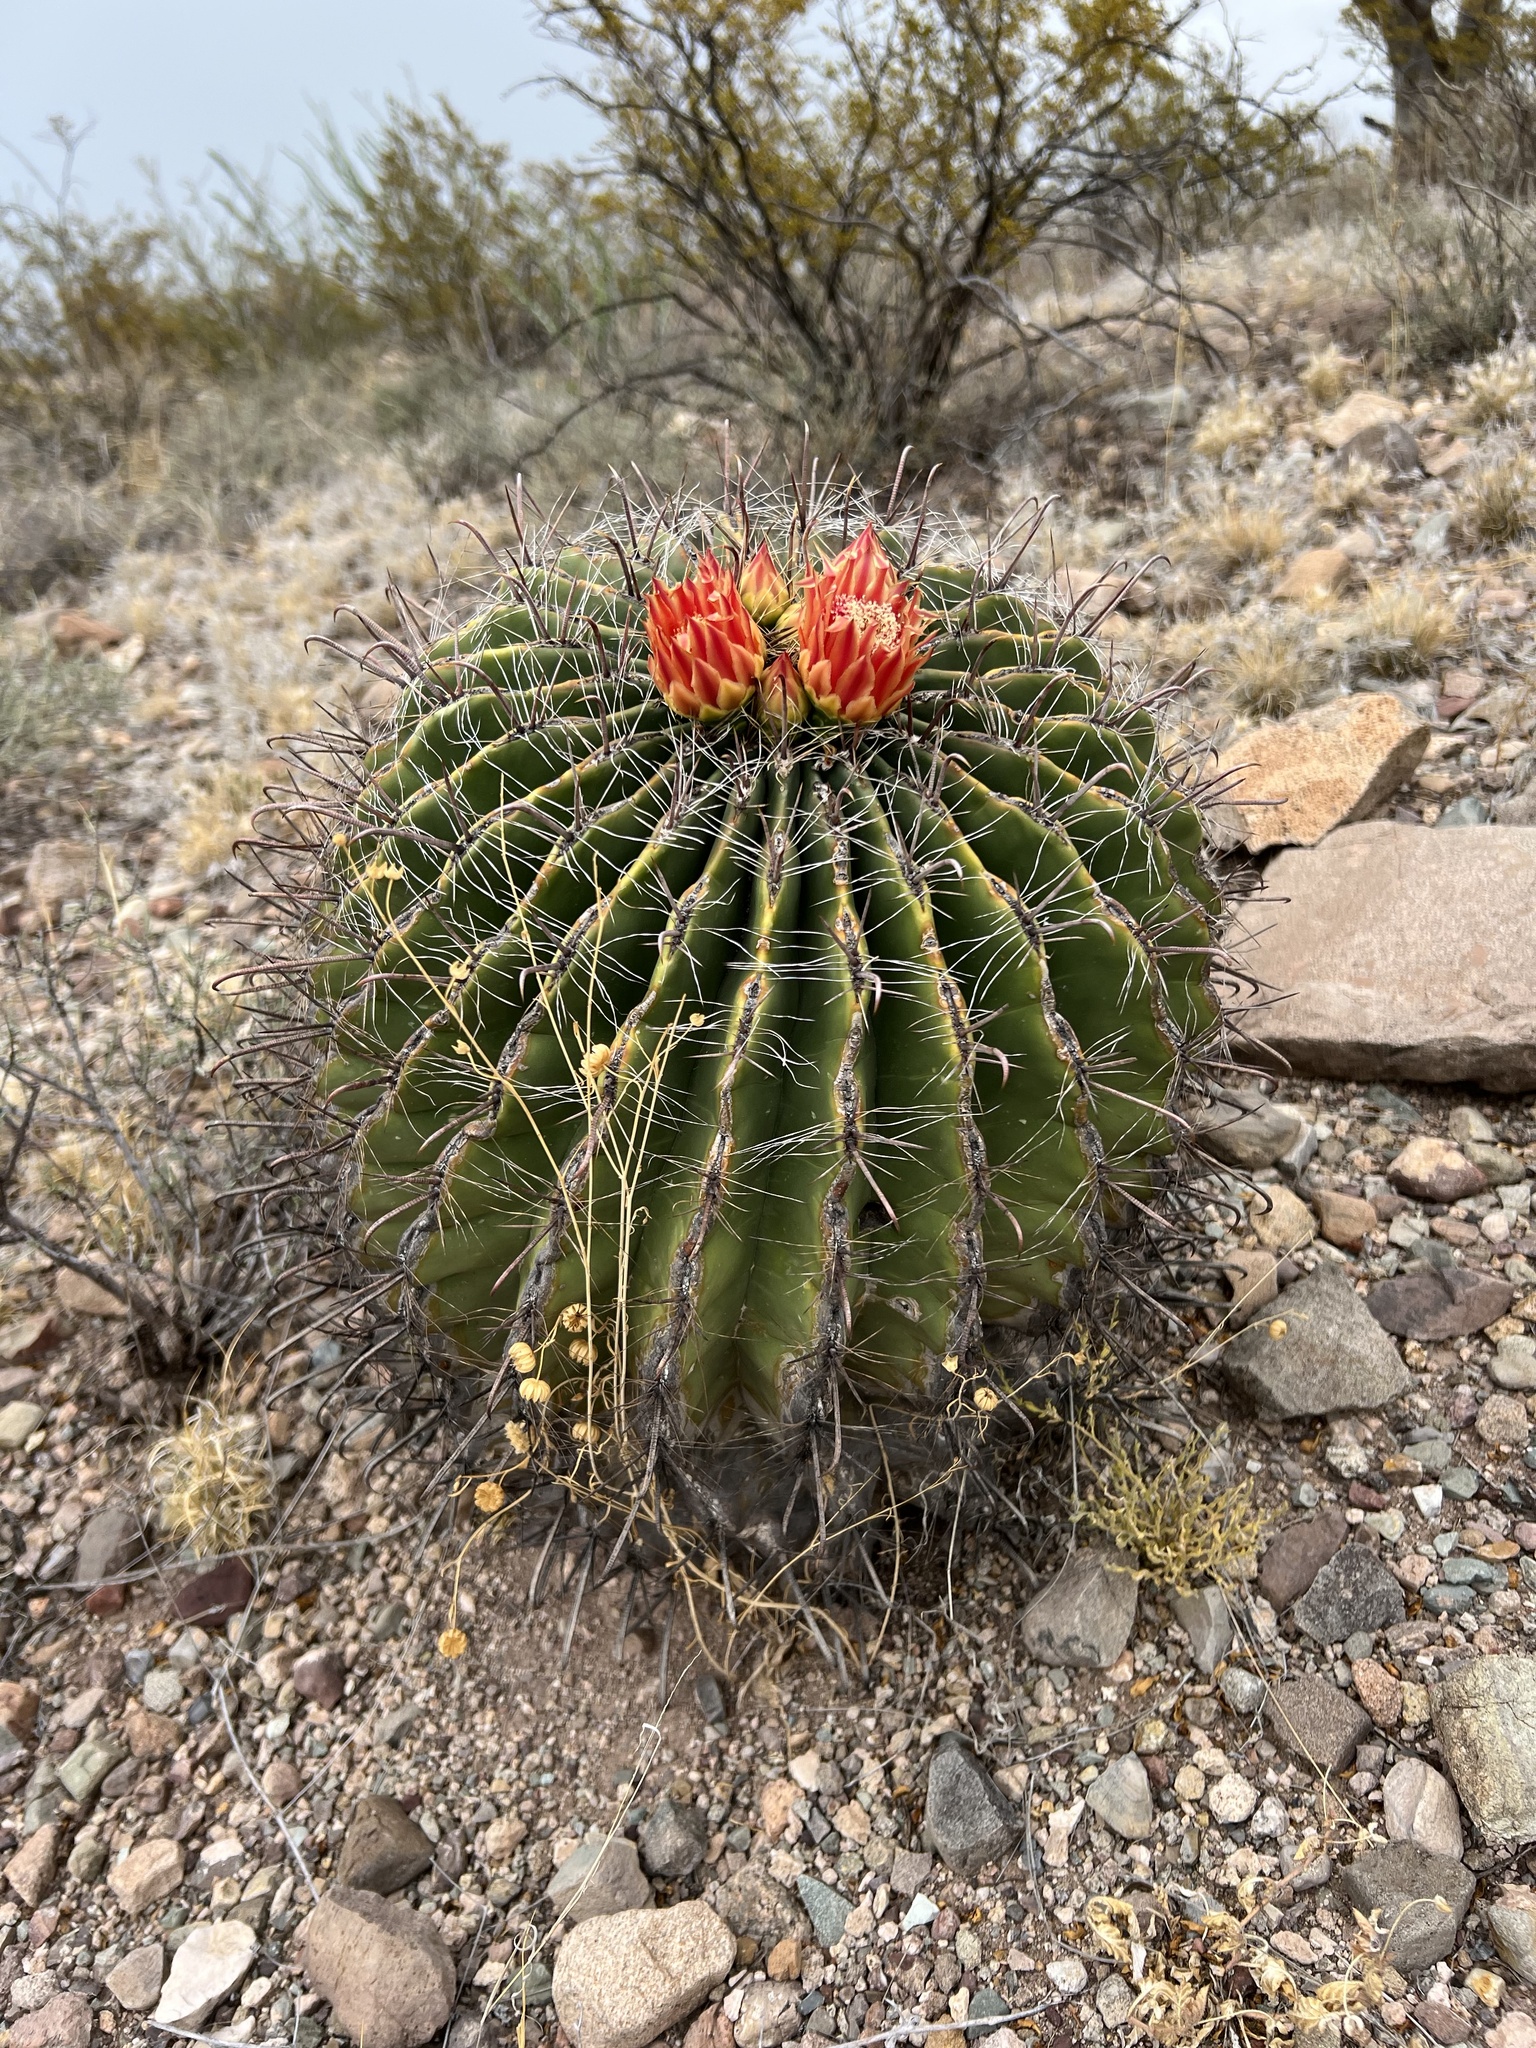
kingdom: Plantae
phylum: Tracheophyta
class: Magnoliopsida
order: Caryophyllales
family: Cactaceae
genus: Ferocactus
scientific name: Ferocactus wislizeni
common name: Candy barrel cactus
